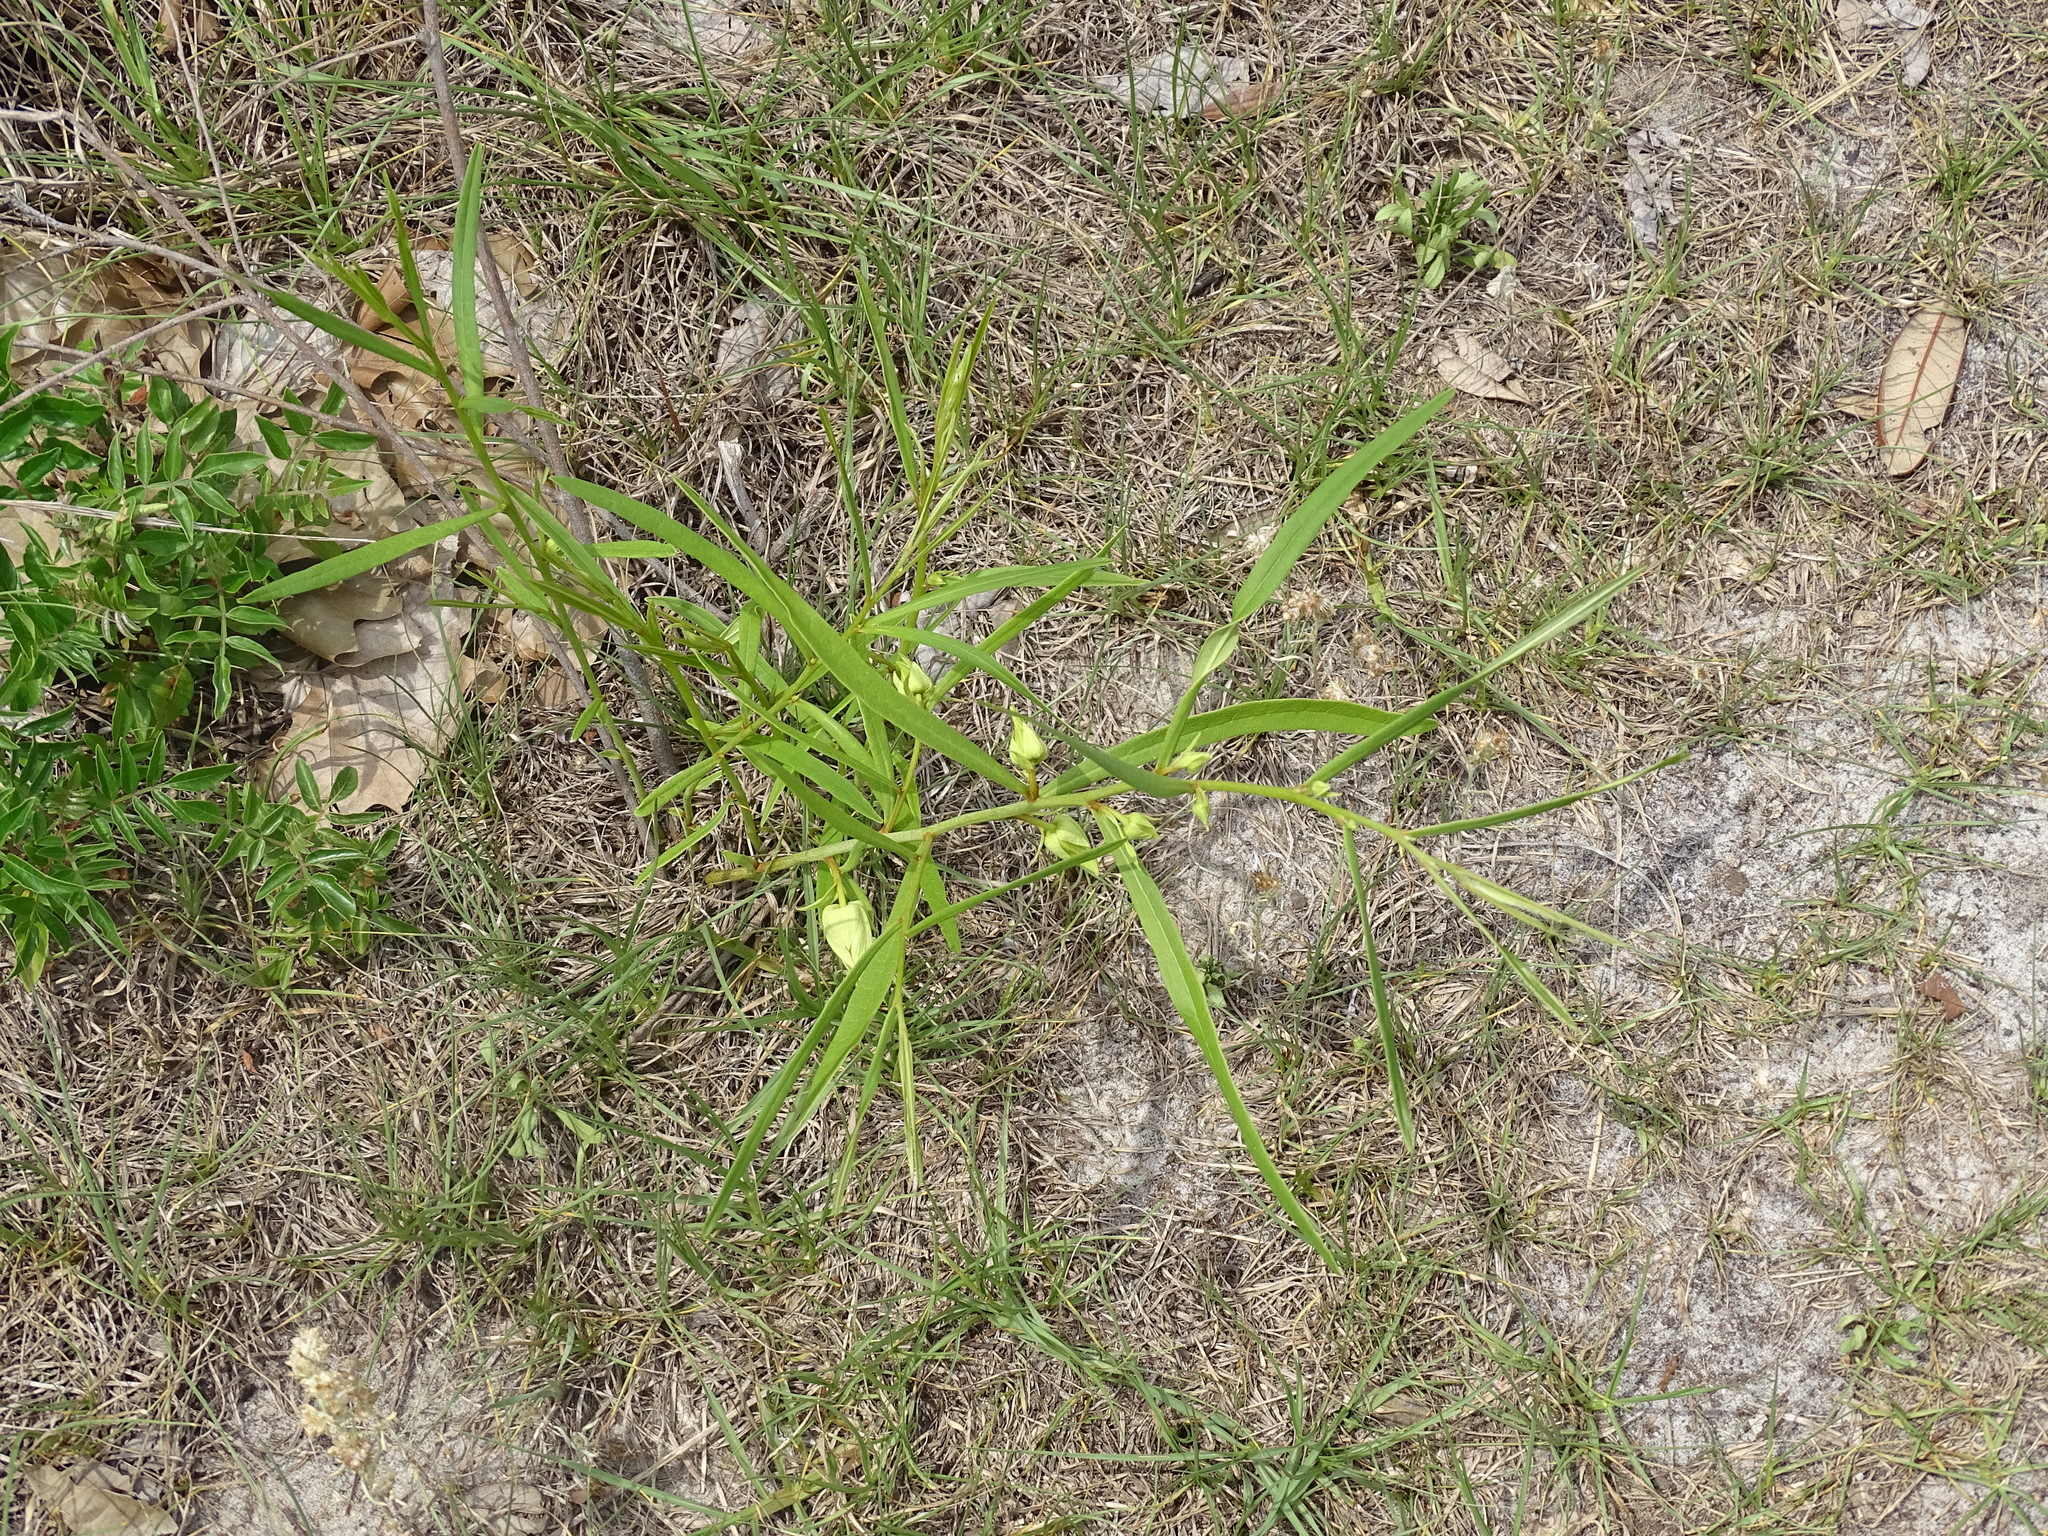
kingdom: Plantae
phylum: Tracheophyta
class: Magnoliopsida
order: Magnoliales
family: Annonaceae
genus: Asimina
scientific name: Asimina longifolia
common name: Polecatbush
